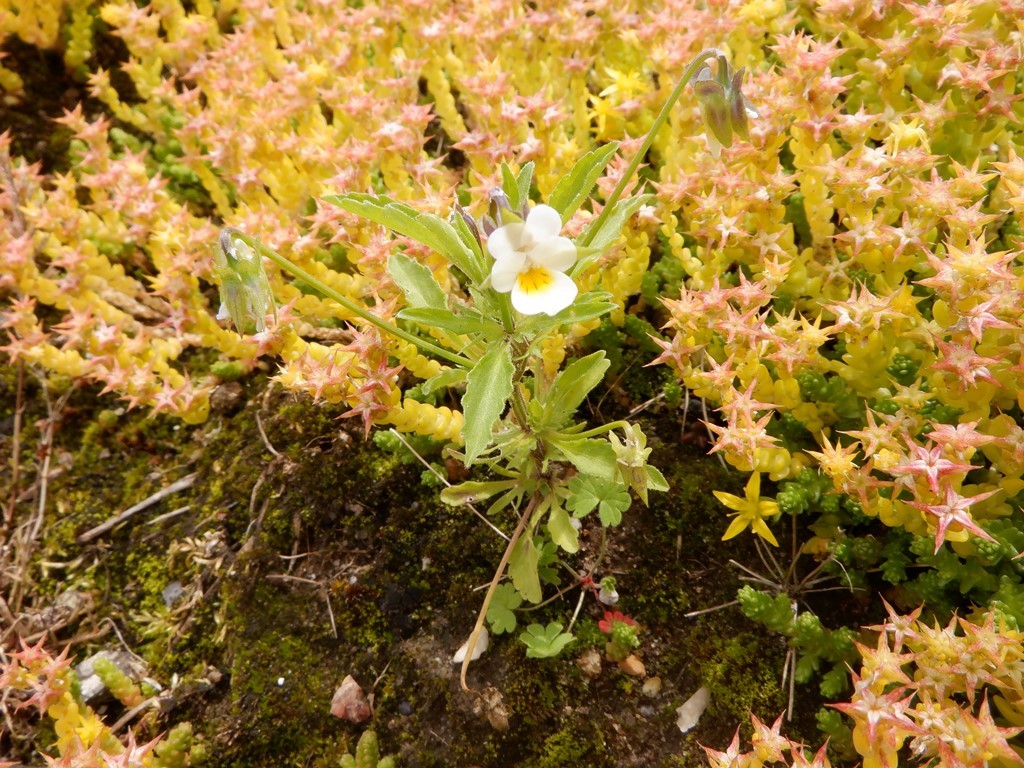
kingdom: Plantae
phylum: Tracheophyta
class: Magnoliopsida
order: Malpighiales
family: Violaceae
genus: Viola
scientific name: Viola arvensis
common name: Field pansy
